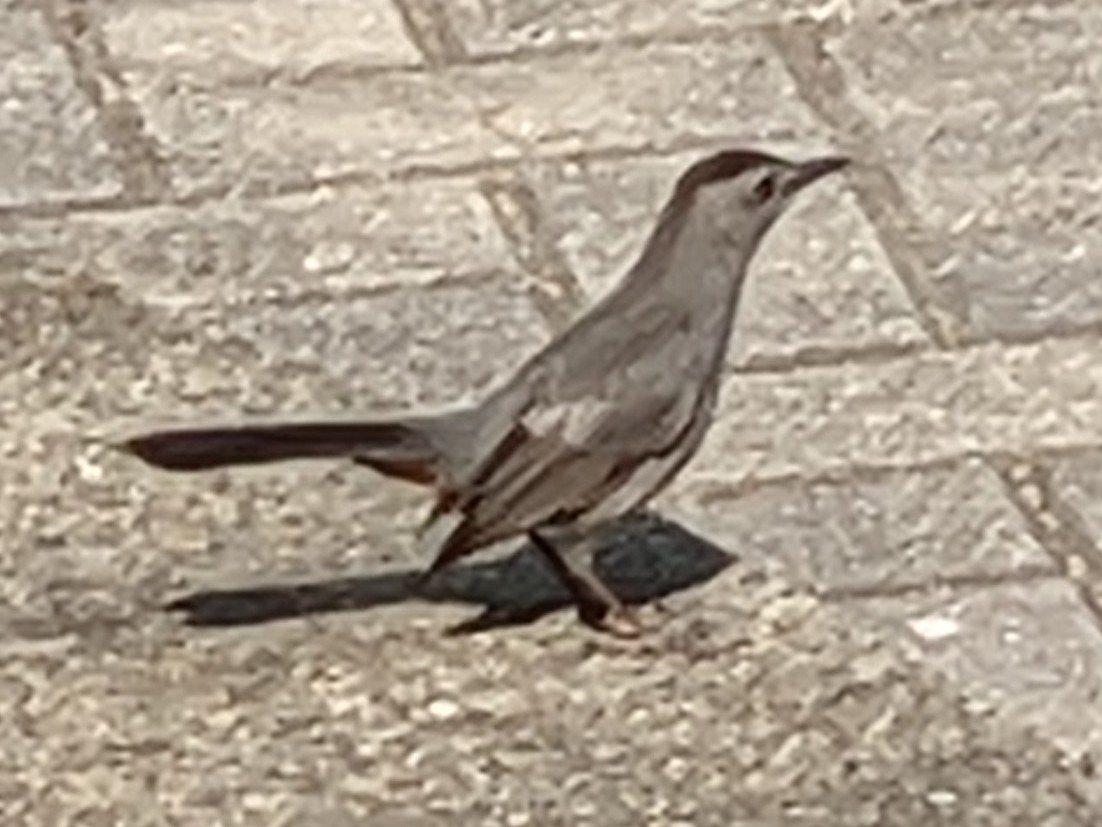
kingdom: Animalia
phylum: Chordata
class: Aves
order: Passeriformes
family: Mimidae
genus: Dumetella
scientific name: Dumetella carolinensis
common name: Gray catbird
